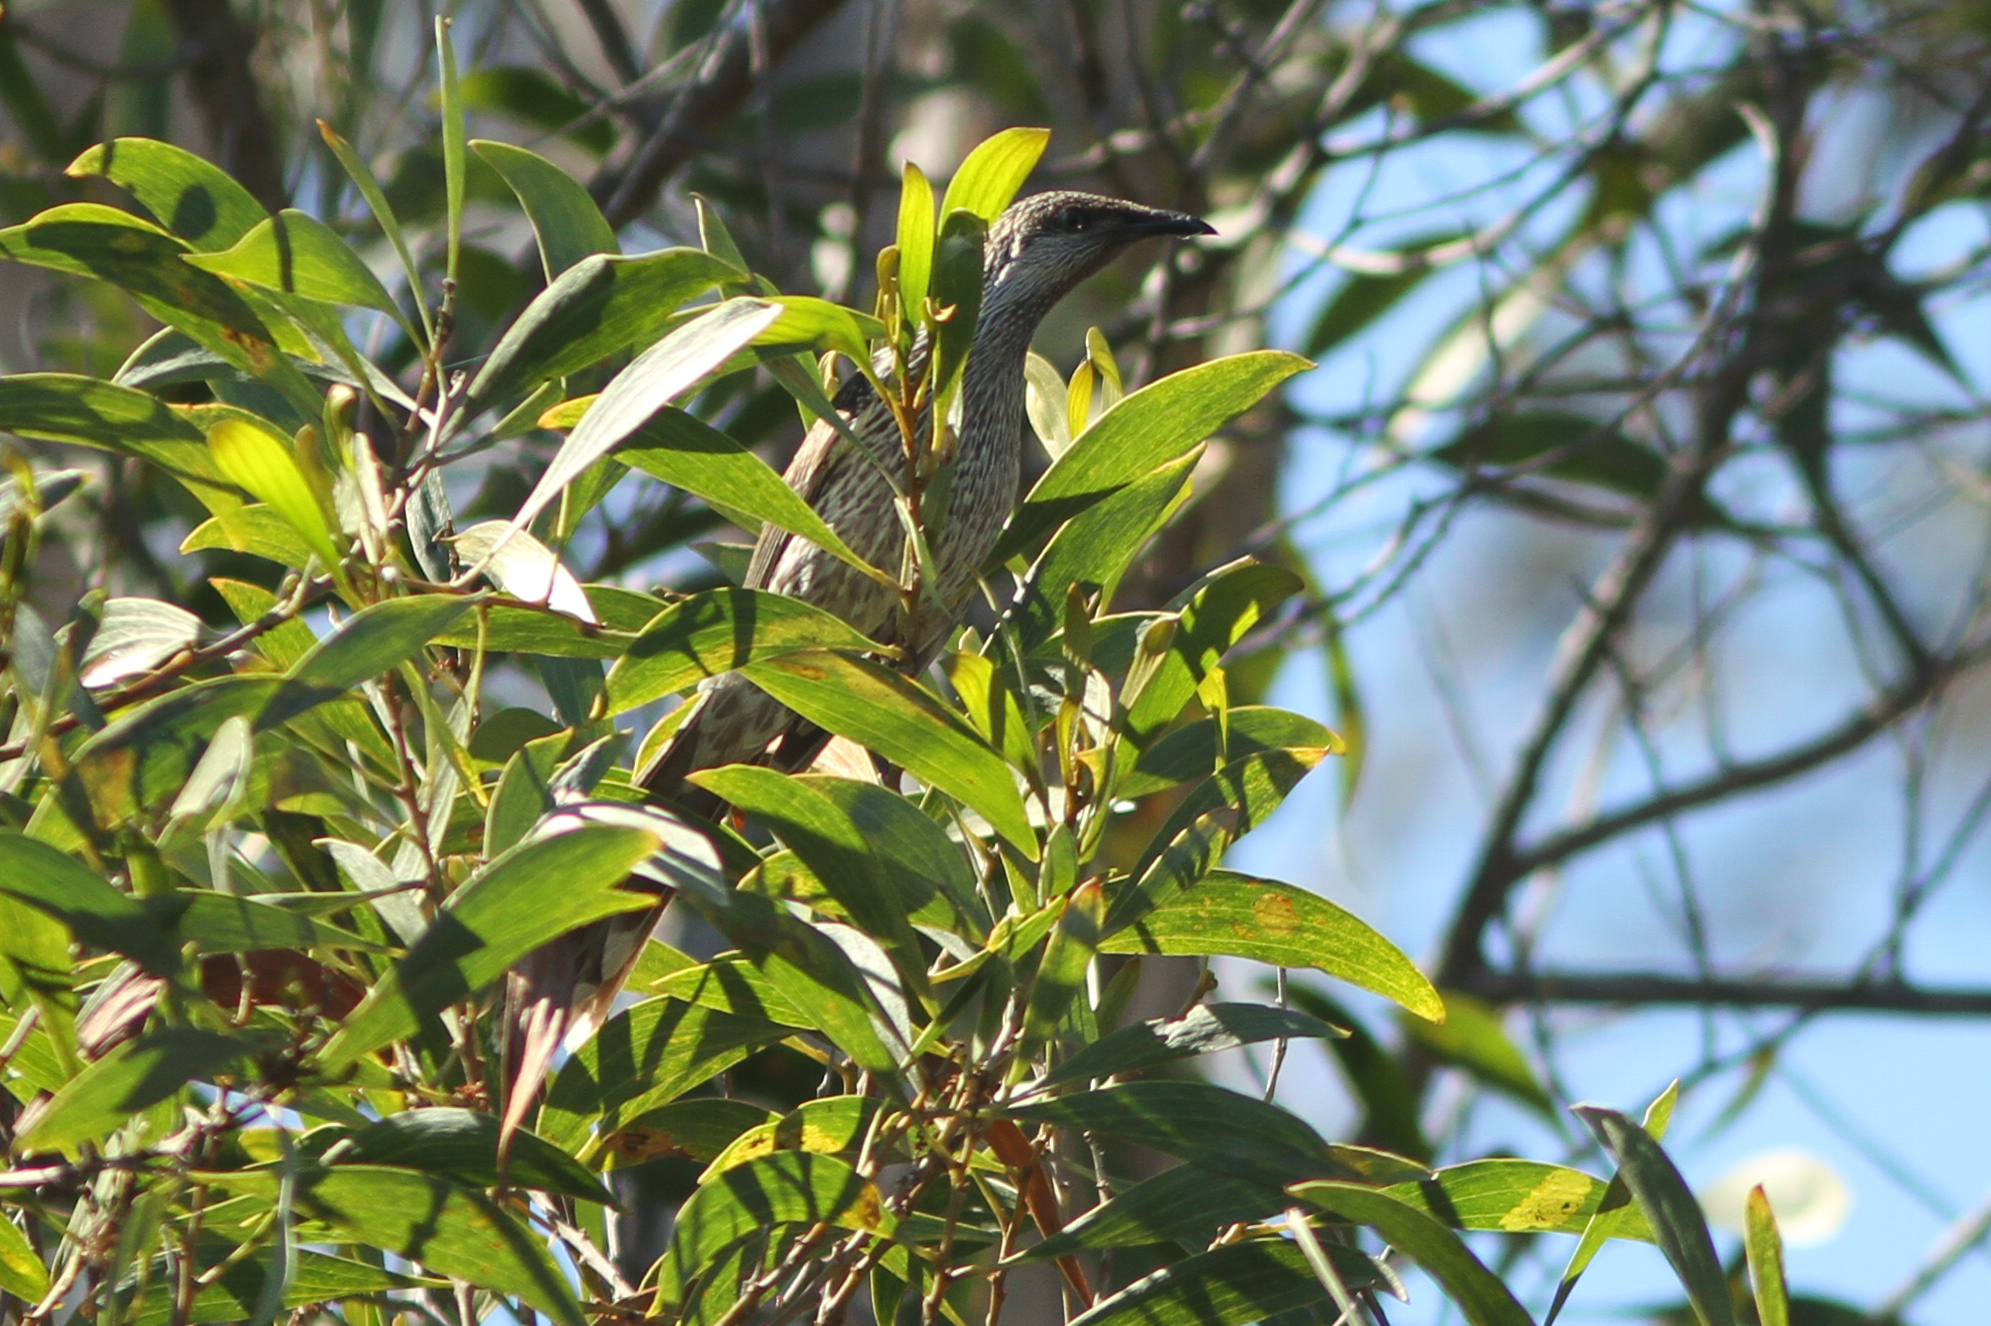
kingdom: Animalia
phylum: Chordata
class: Aves
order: Passeriformes
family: Meliphagidae
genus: Anthochaera
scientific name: Anthochaera chrysoptera
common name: Little wattlebird
